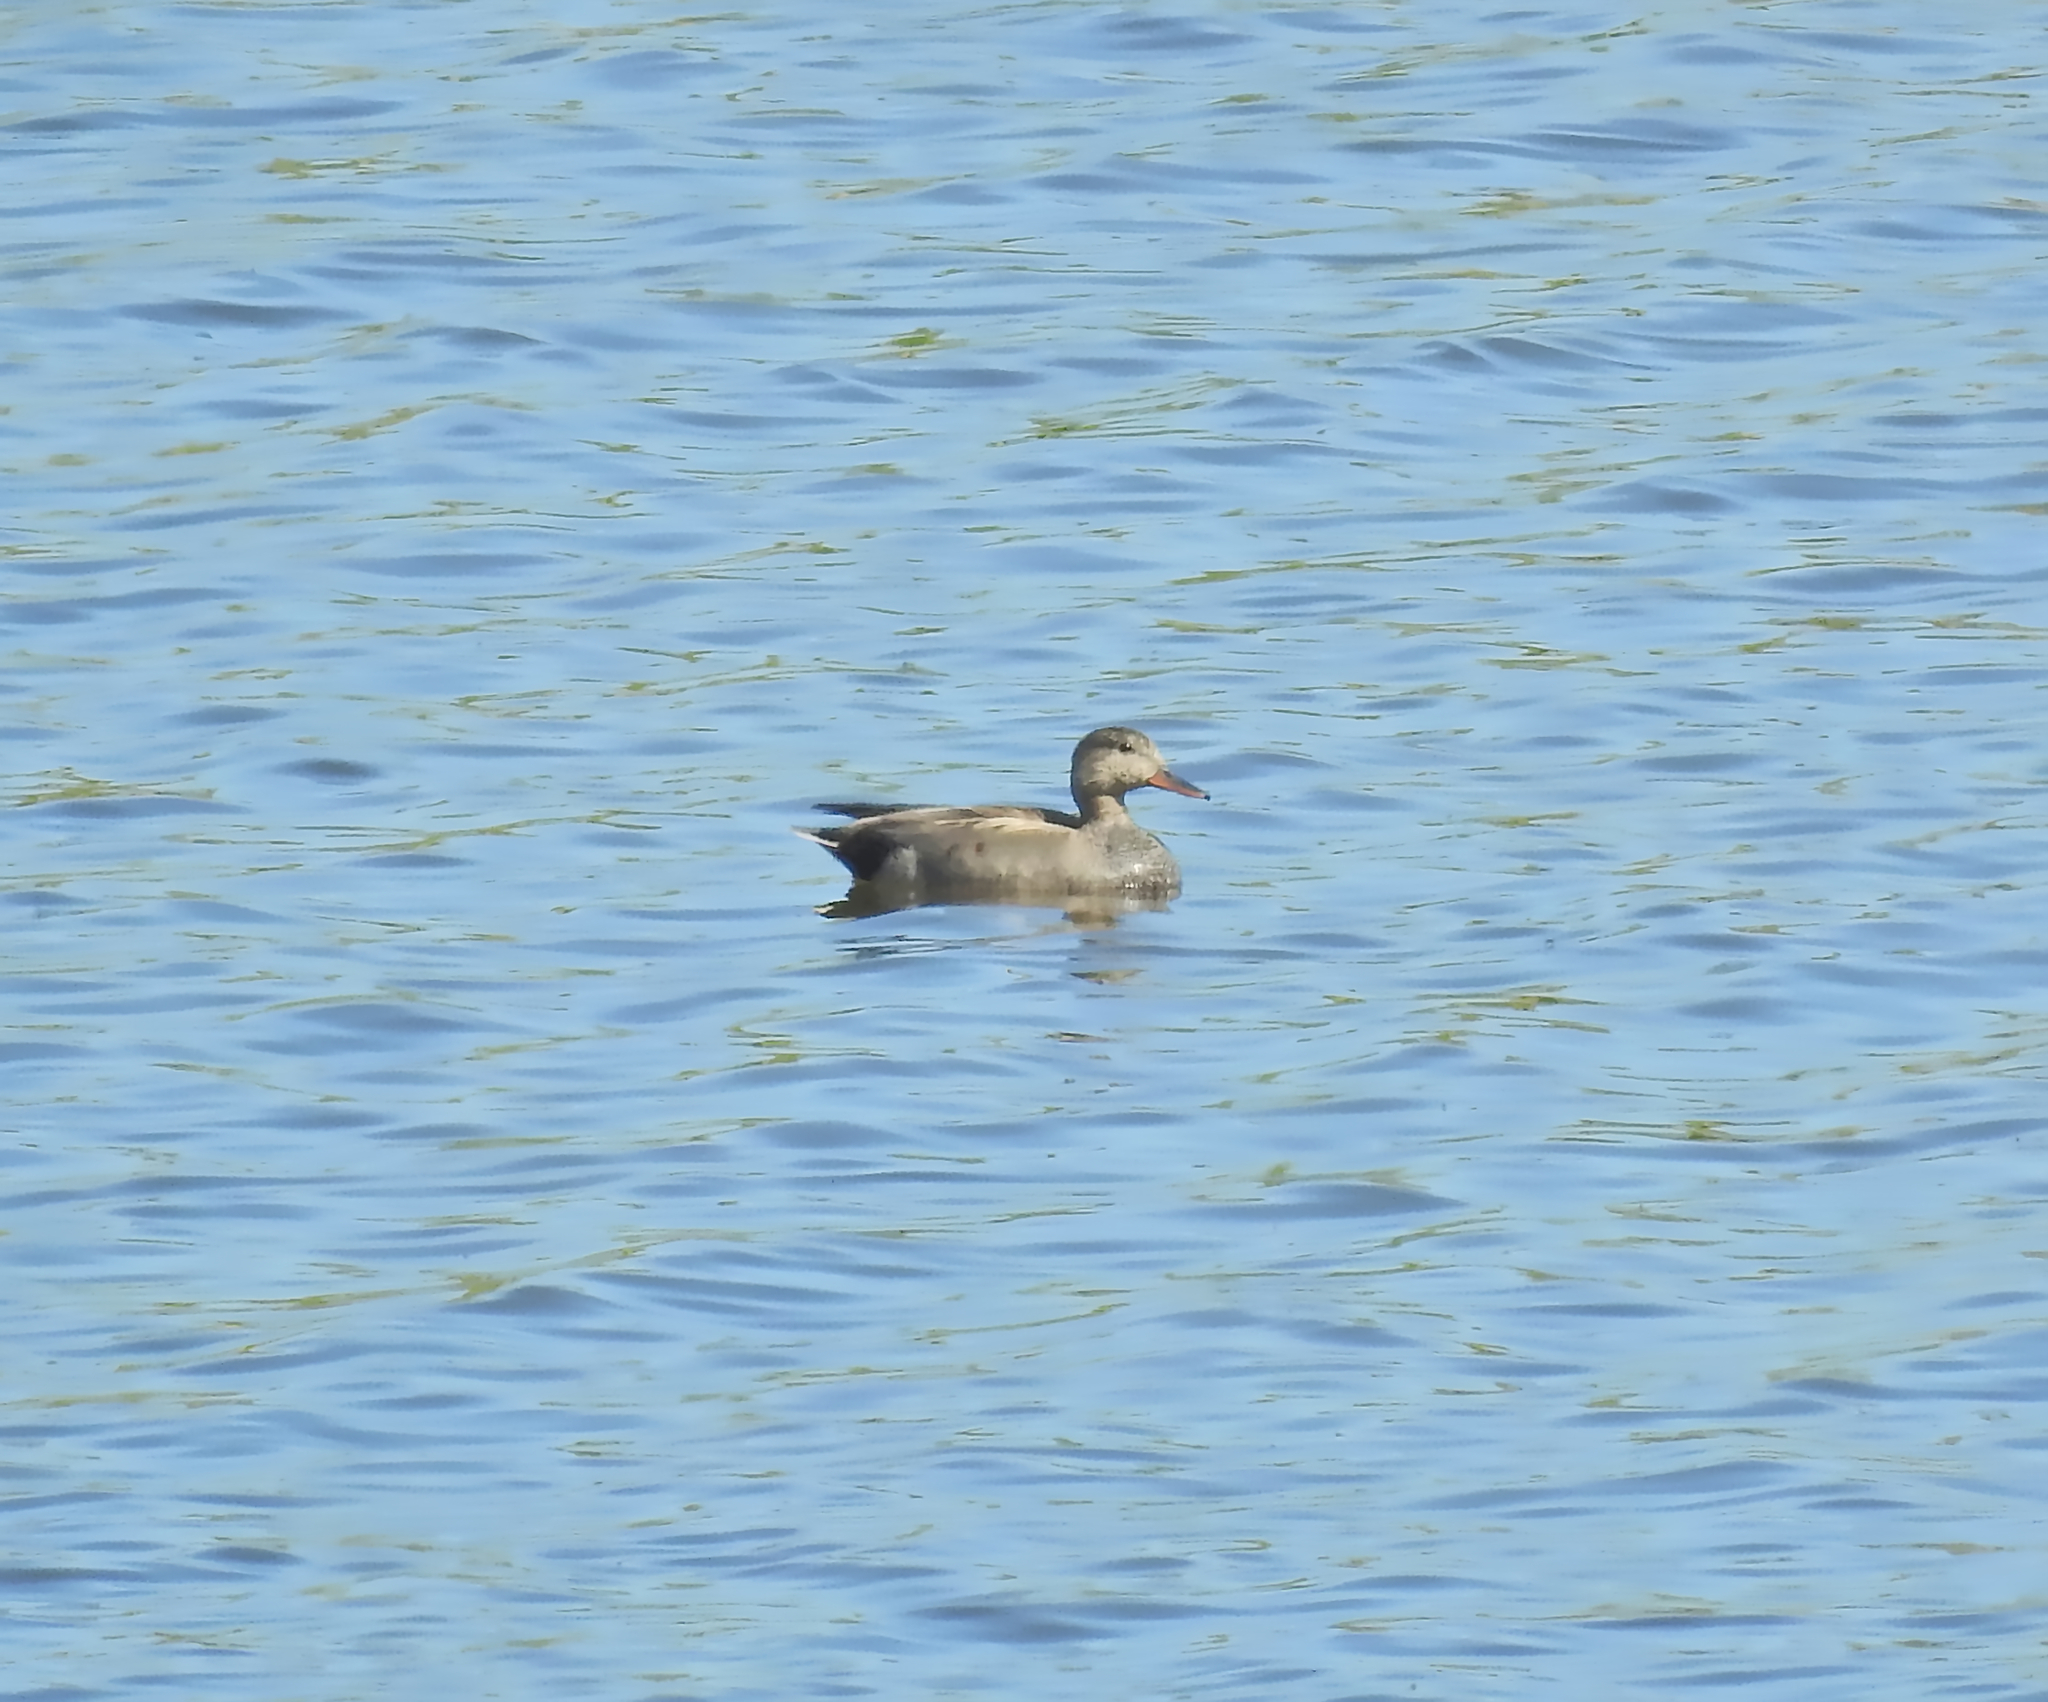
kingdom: Animalia
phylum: Chordata
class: Aves
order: Anseriformes
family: Anatidae
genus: Mareca
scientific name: Mareca strepera
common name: Gadwall
